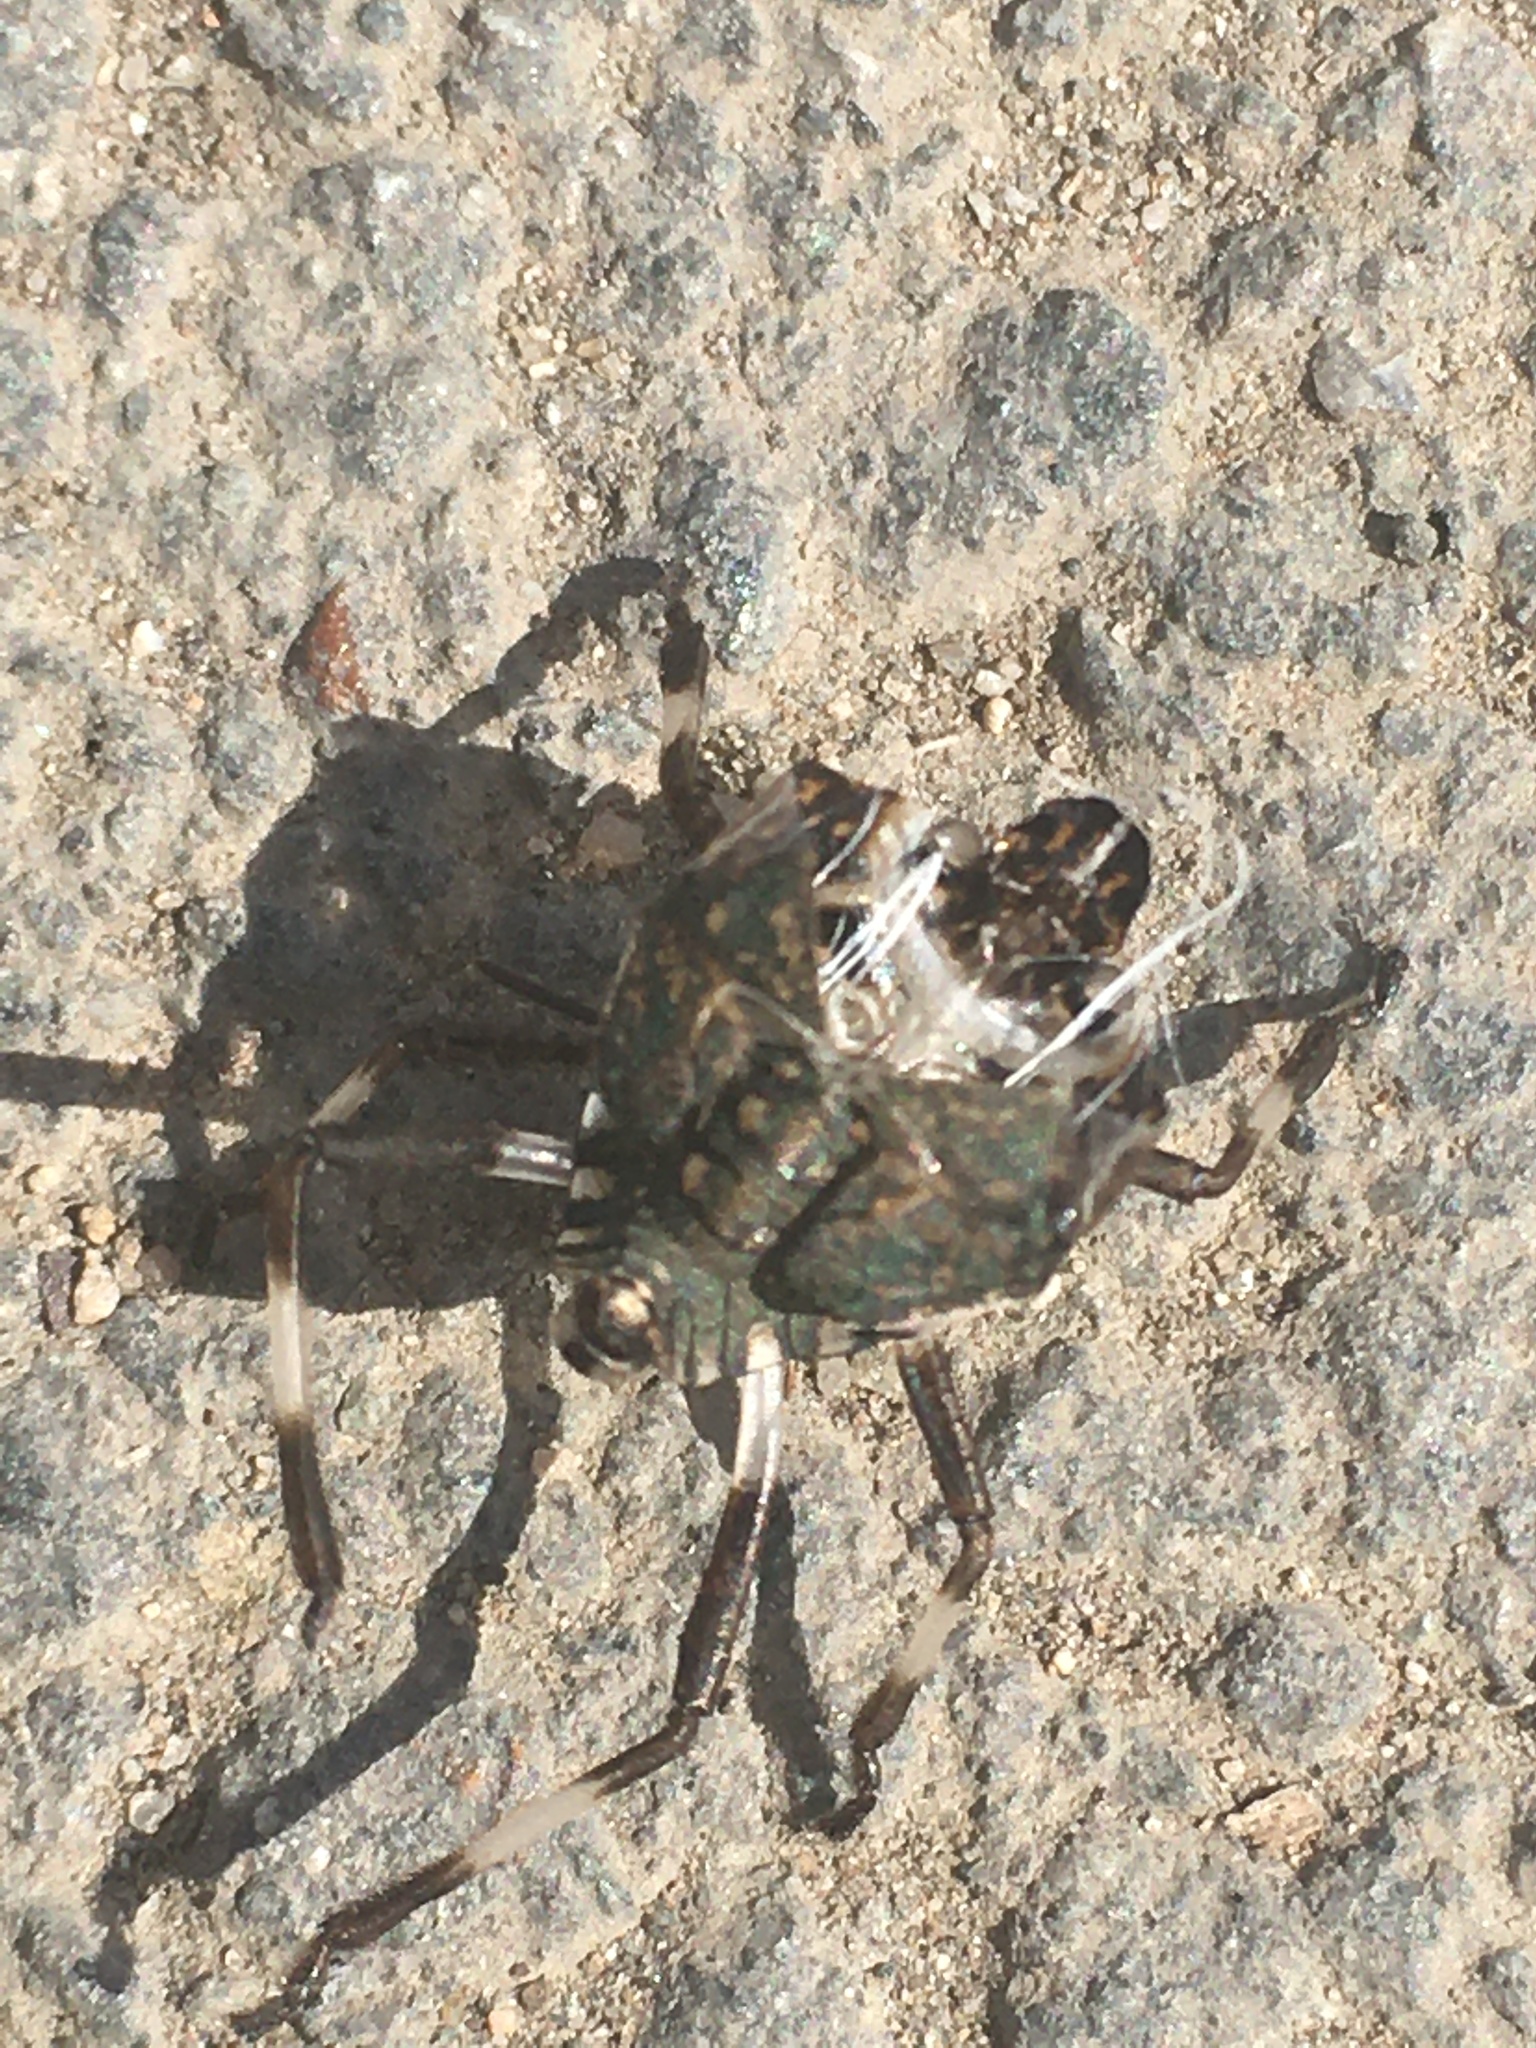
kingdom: Animalia
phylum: Arthropoda
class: Insecta
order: Hemiptera
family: Pentatomidae
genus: Halyomorpha
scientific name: Halyomorpha halys
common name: Brown marmorated stink bug
